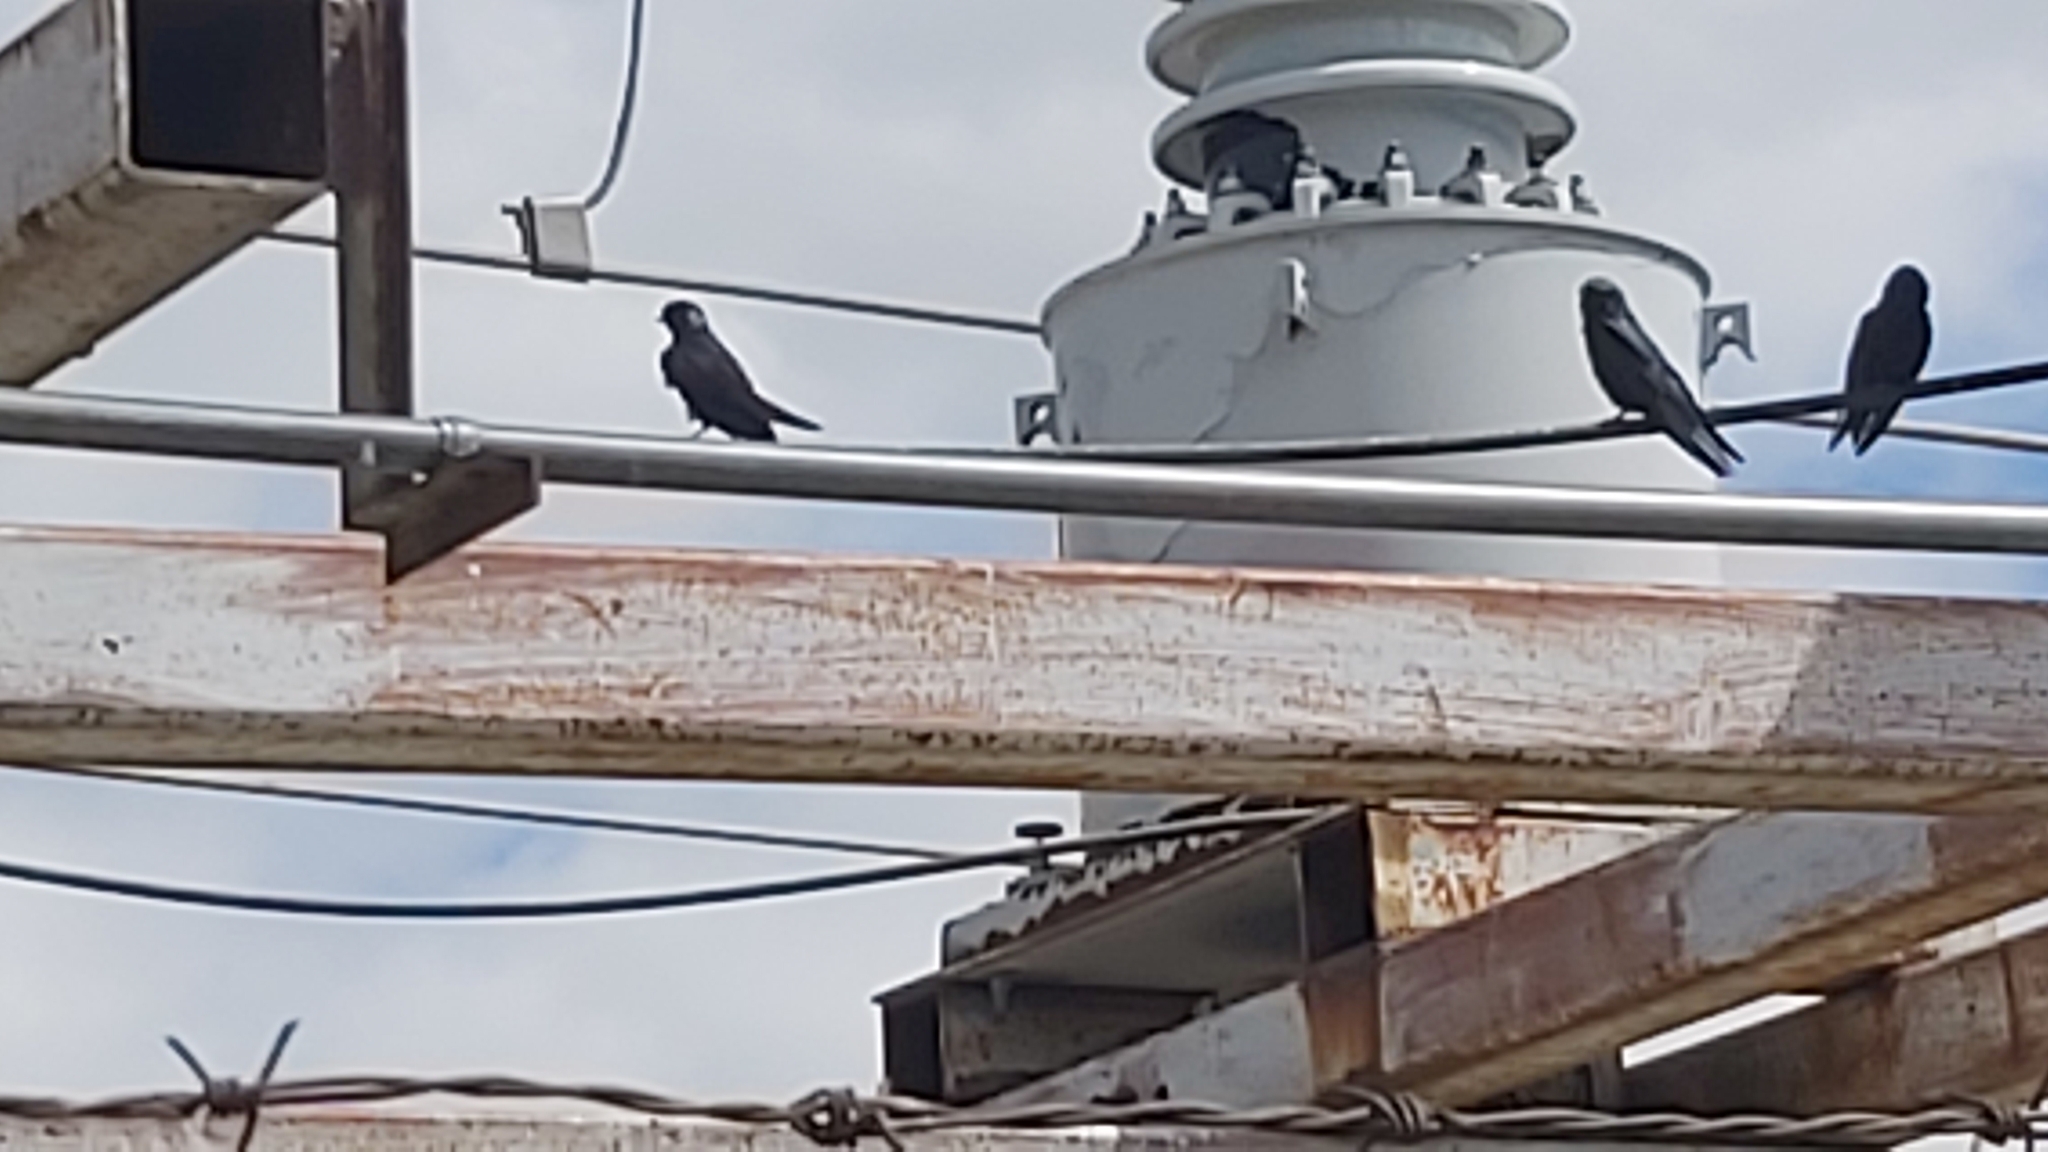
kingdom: Animalia
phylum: Chordata
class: Aves
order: Passeriformes
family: Hirundinidae
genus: Progne
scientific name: Progne subis
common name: Purple martin
